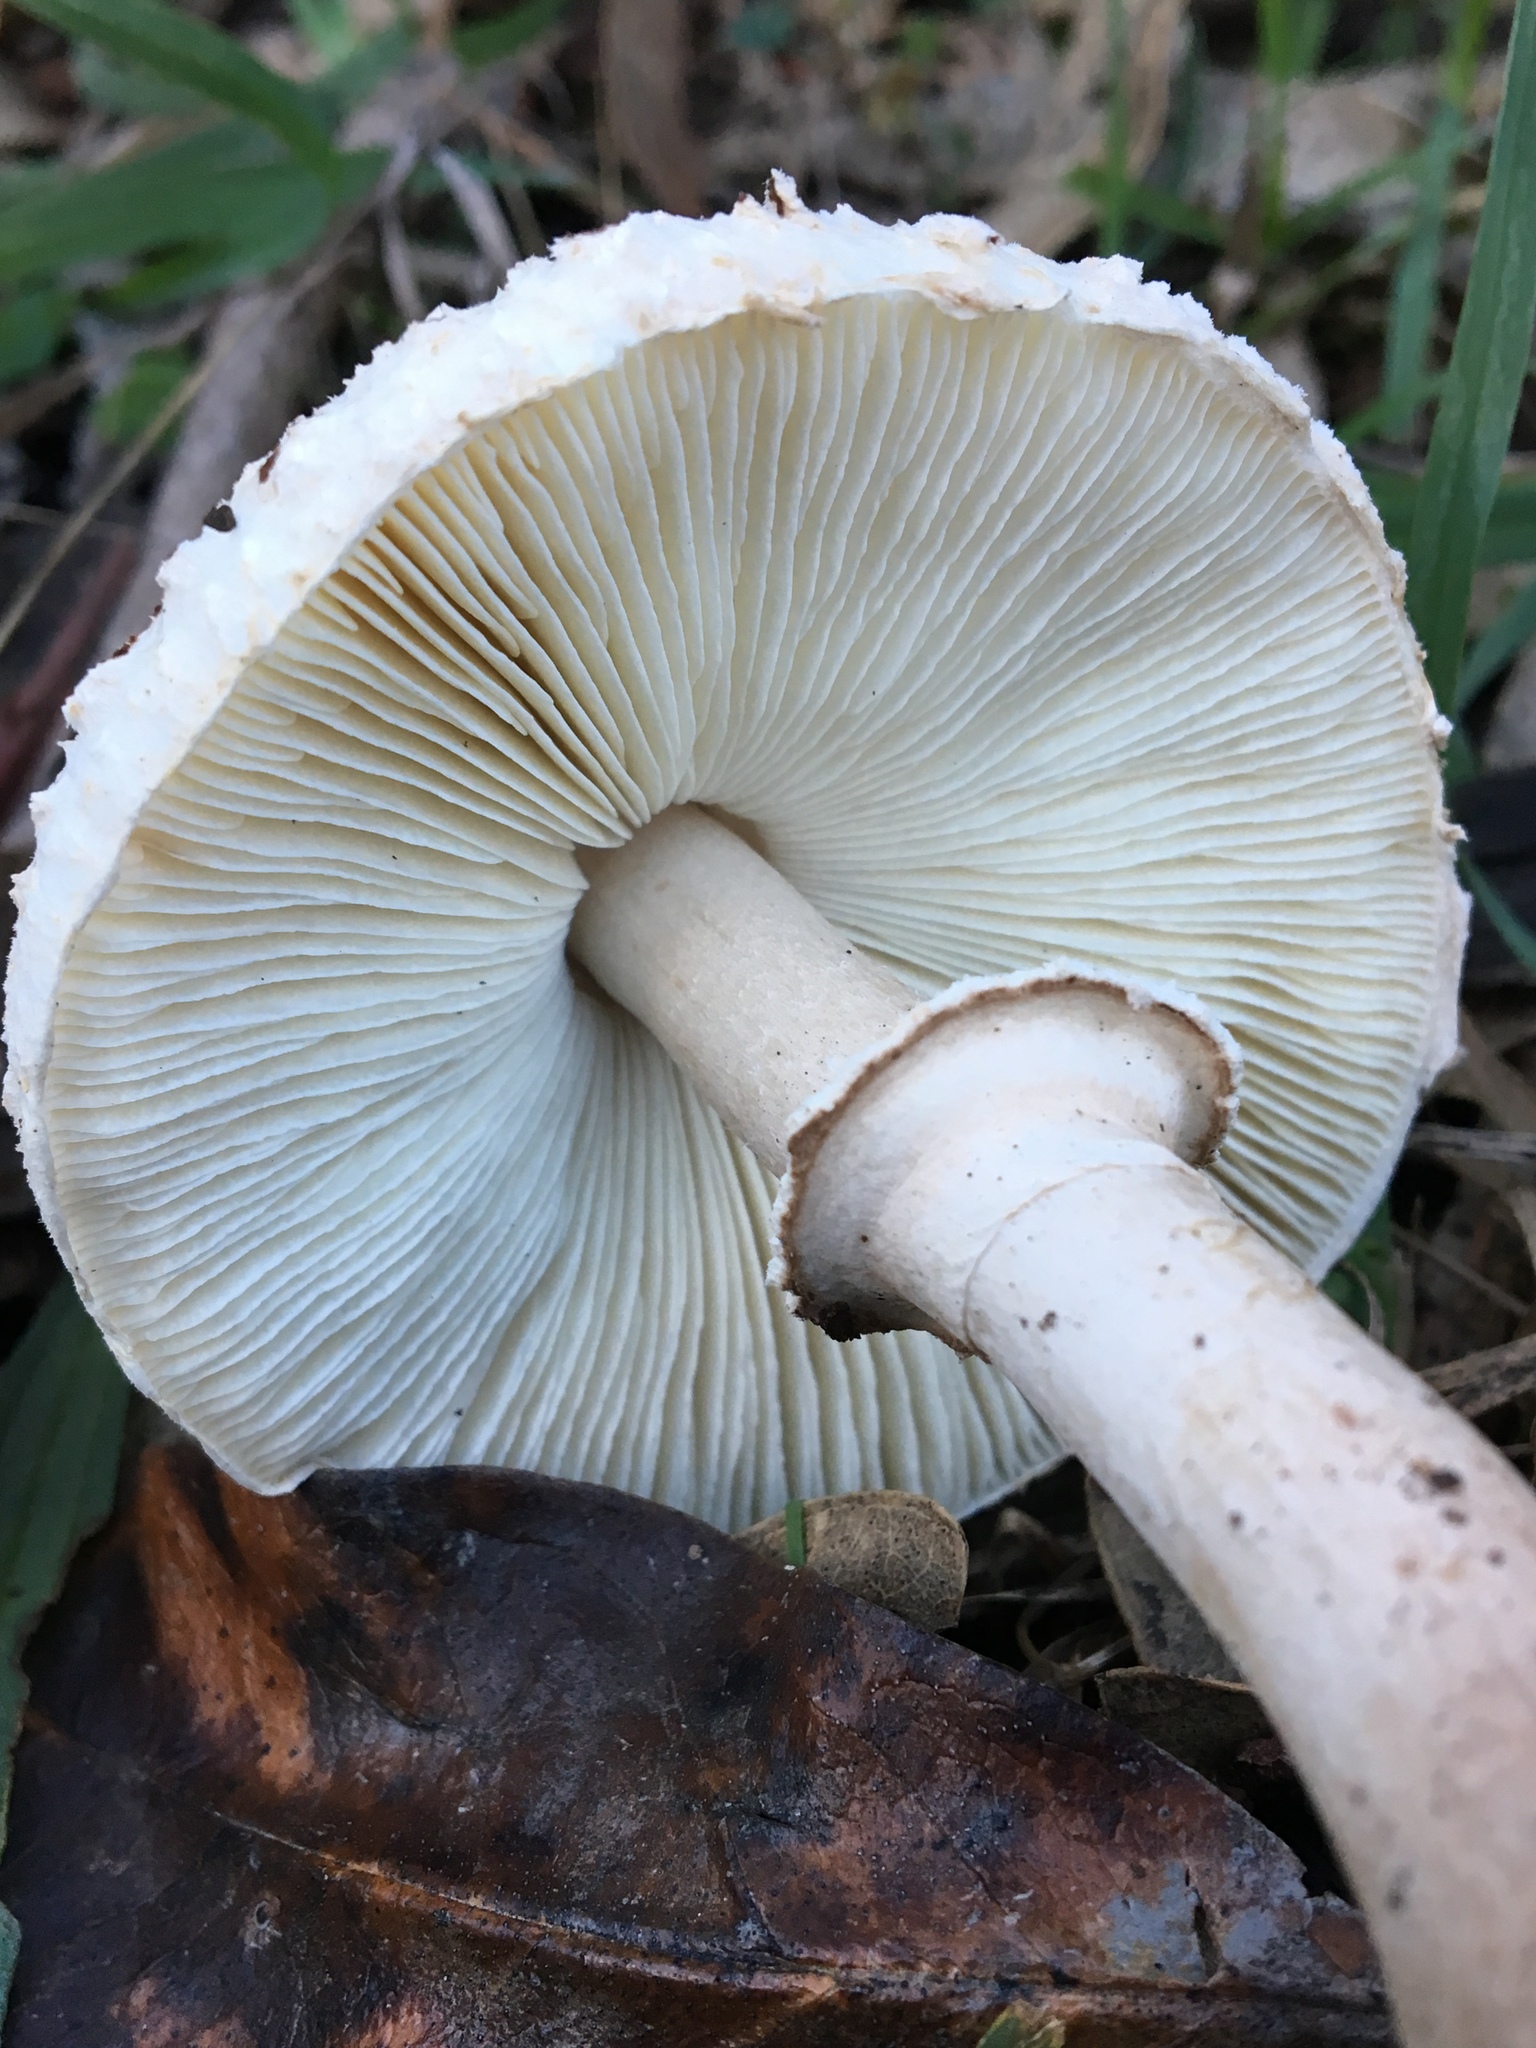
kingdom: Fungi
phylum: Basidiomycota
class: Agaricomycetes
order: Agaricales
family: Agaricaceae
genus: Macrolepiota
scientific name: Macrolepiota clelandii
